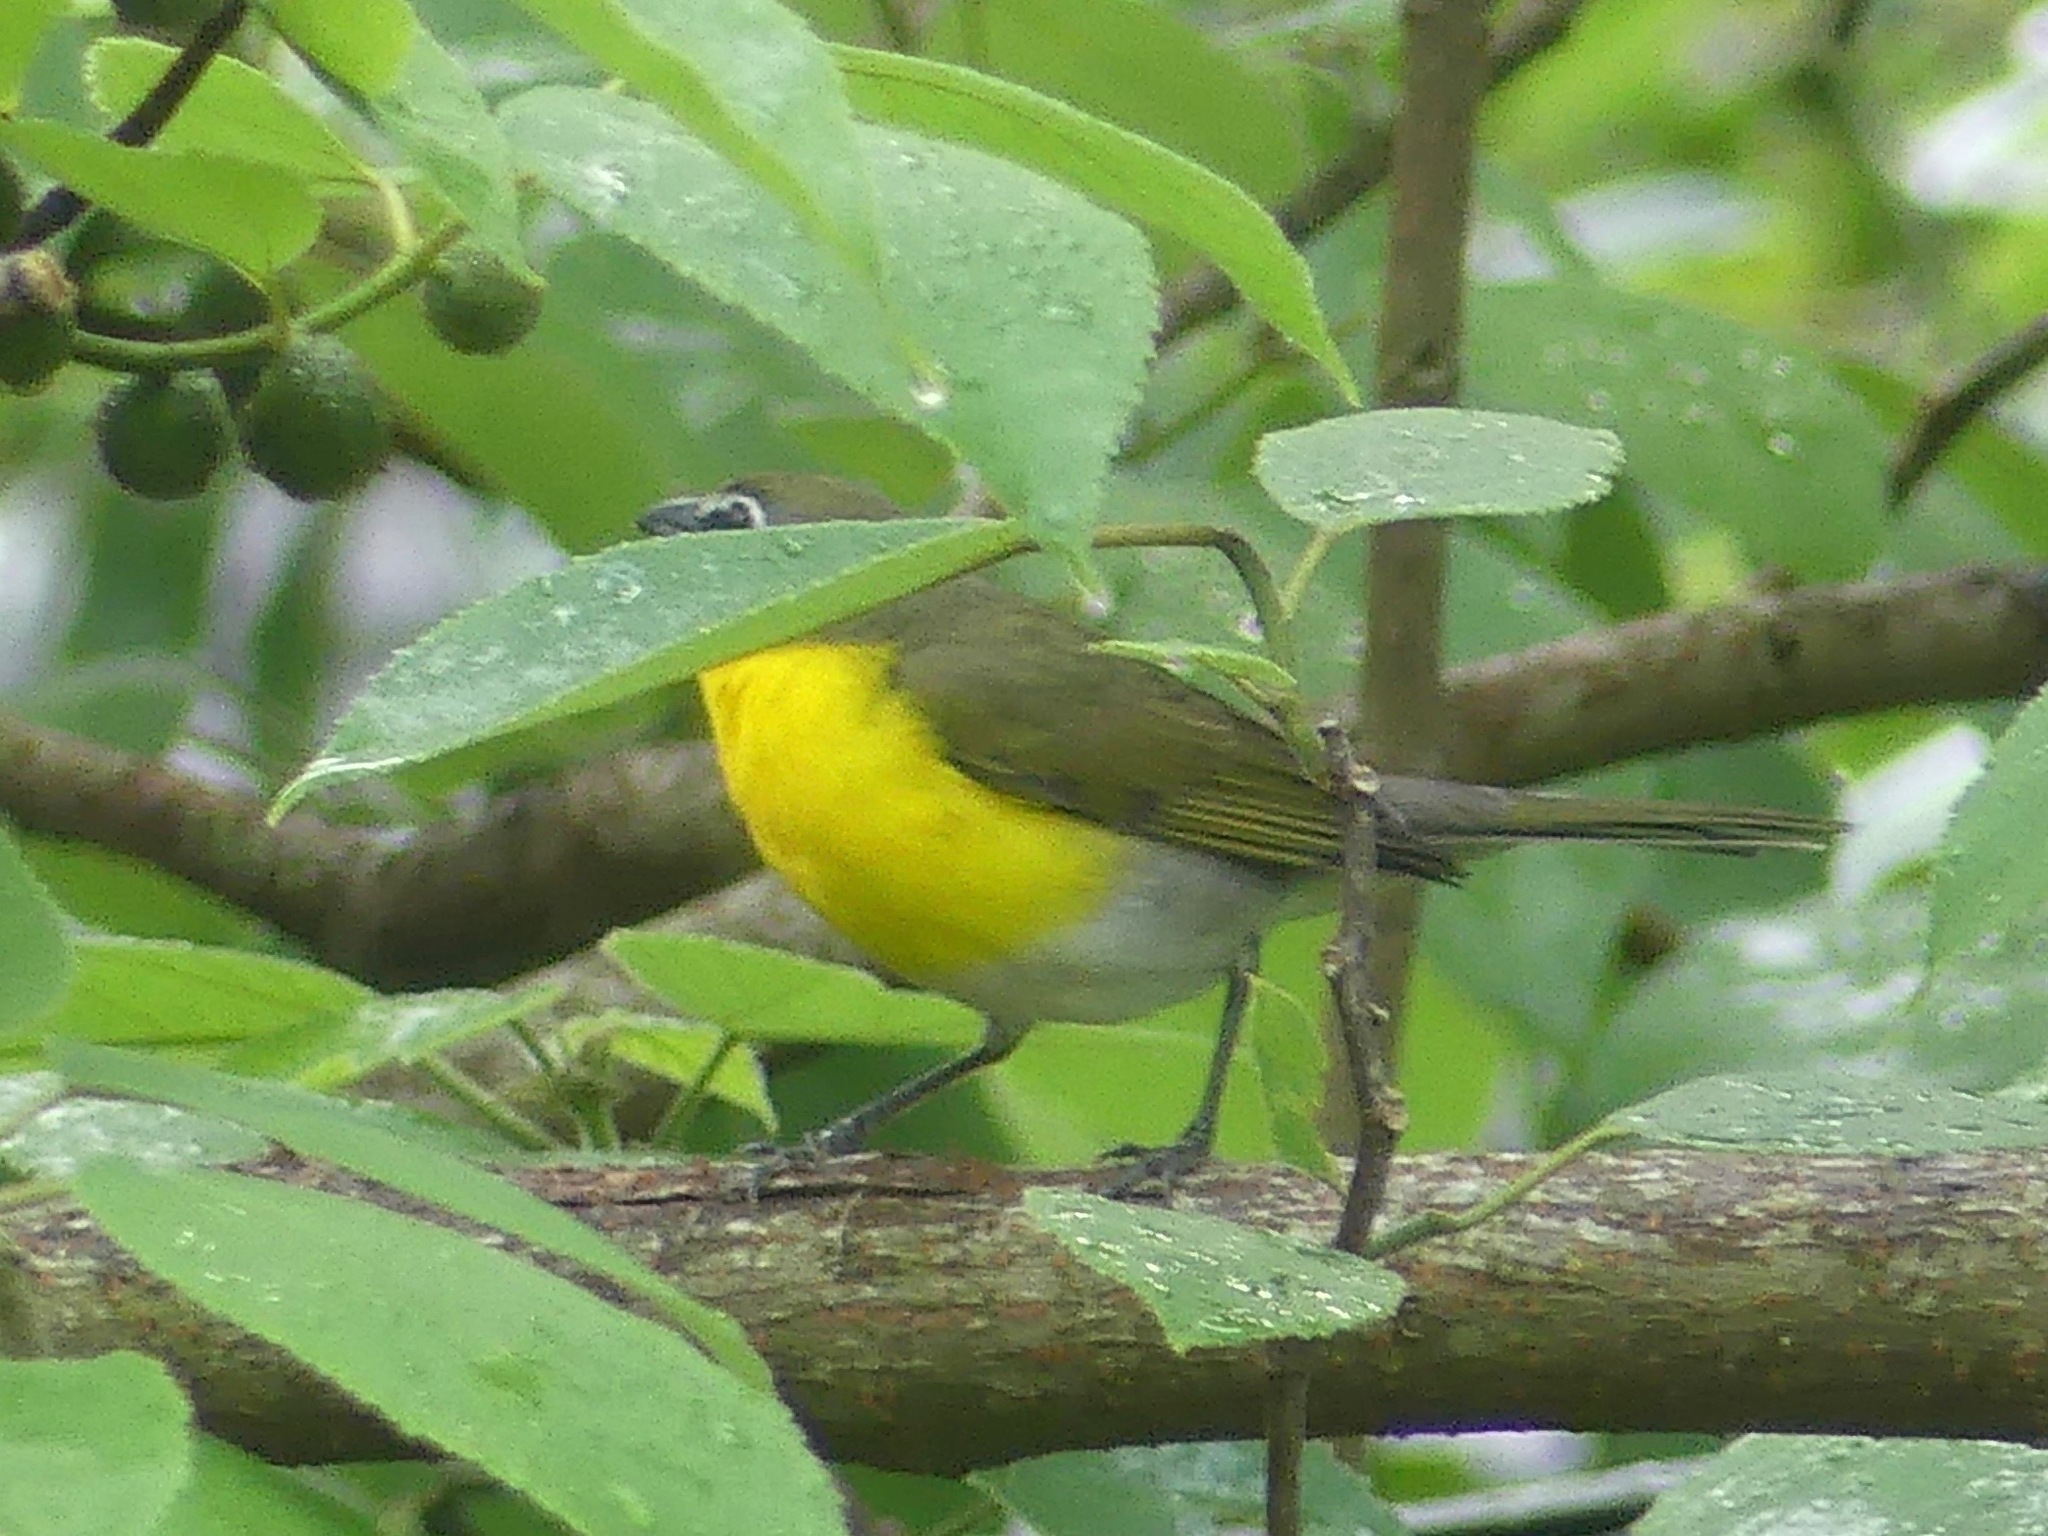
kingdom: Animalia
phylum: Chordata
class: Aves
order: Passeriformes
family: Parulidae
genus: Icteria
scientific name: Icteria virens
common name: Yellow-breasted chat
